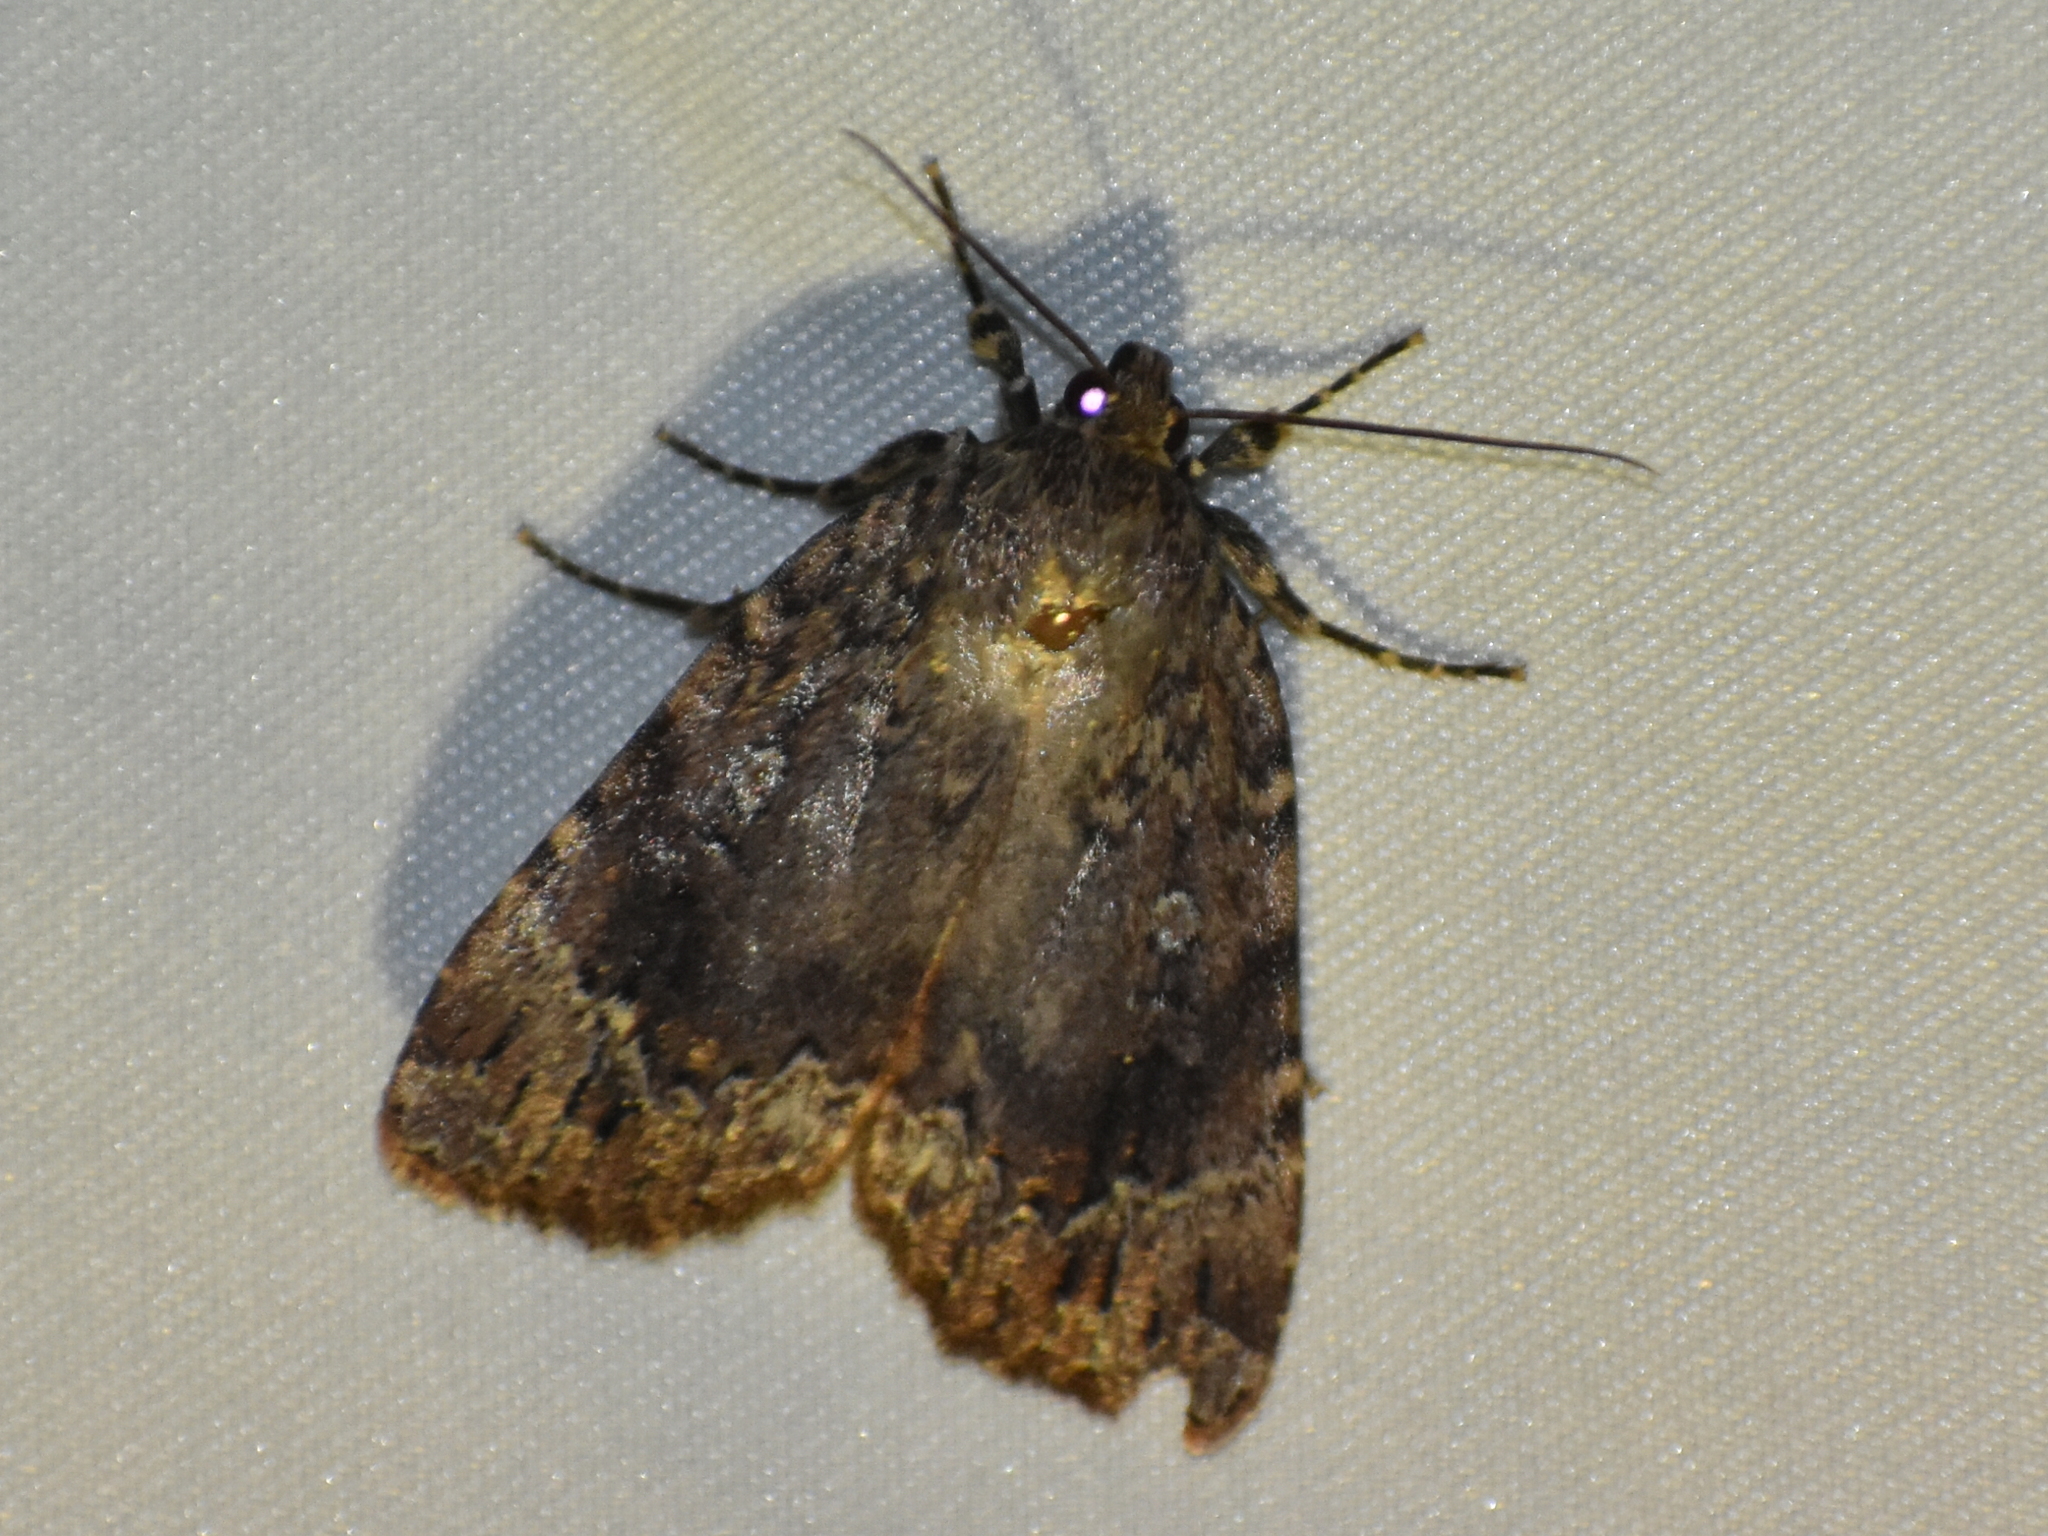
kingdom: Animalia
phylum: Arthropoda
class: Insecta
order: Lepidoptera
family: Noctuidae
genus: Amphipyra
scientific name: Amphipyra pyramidoides
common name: American copper underwing
